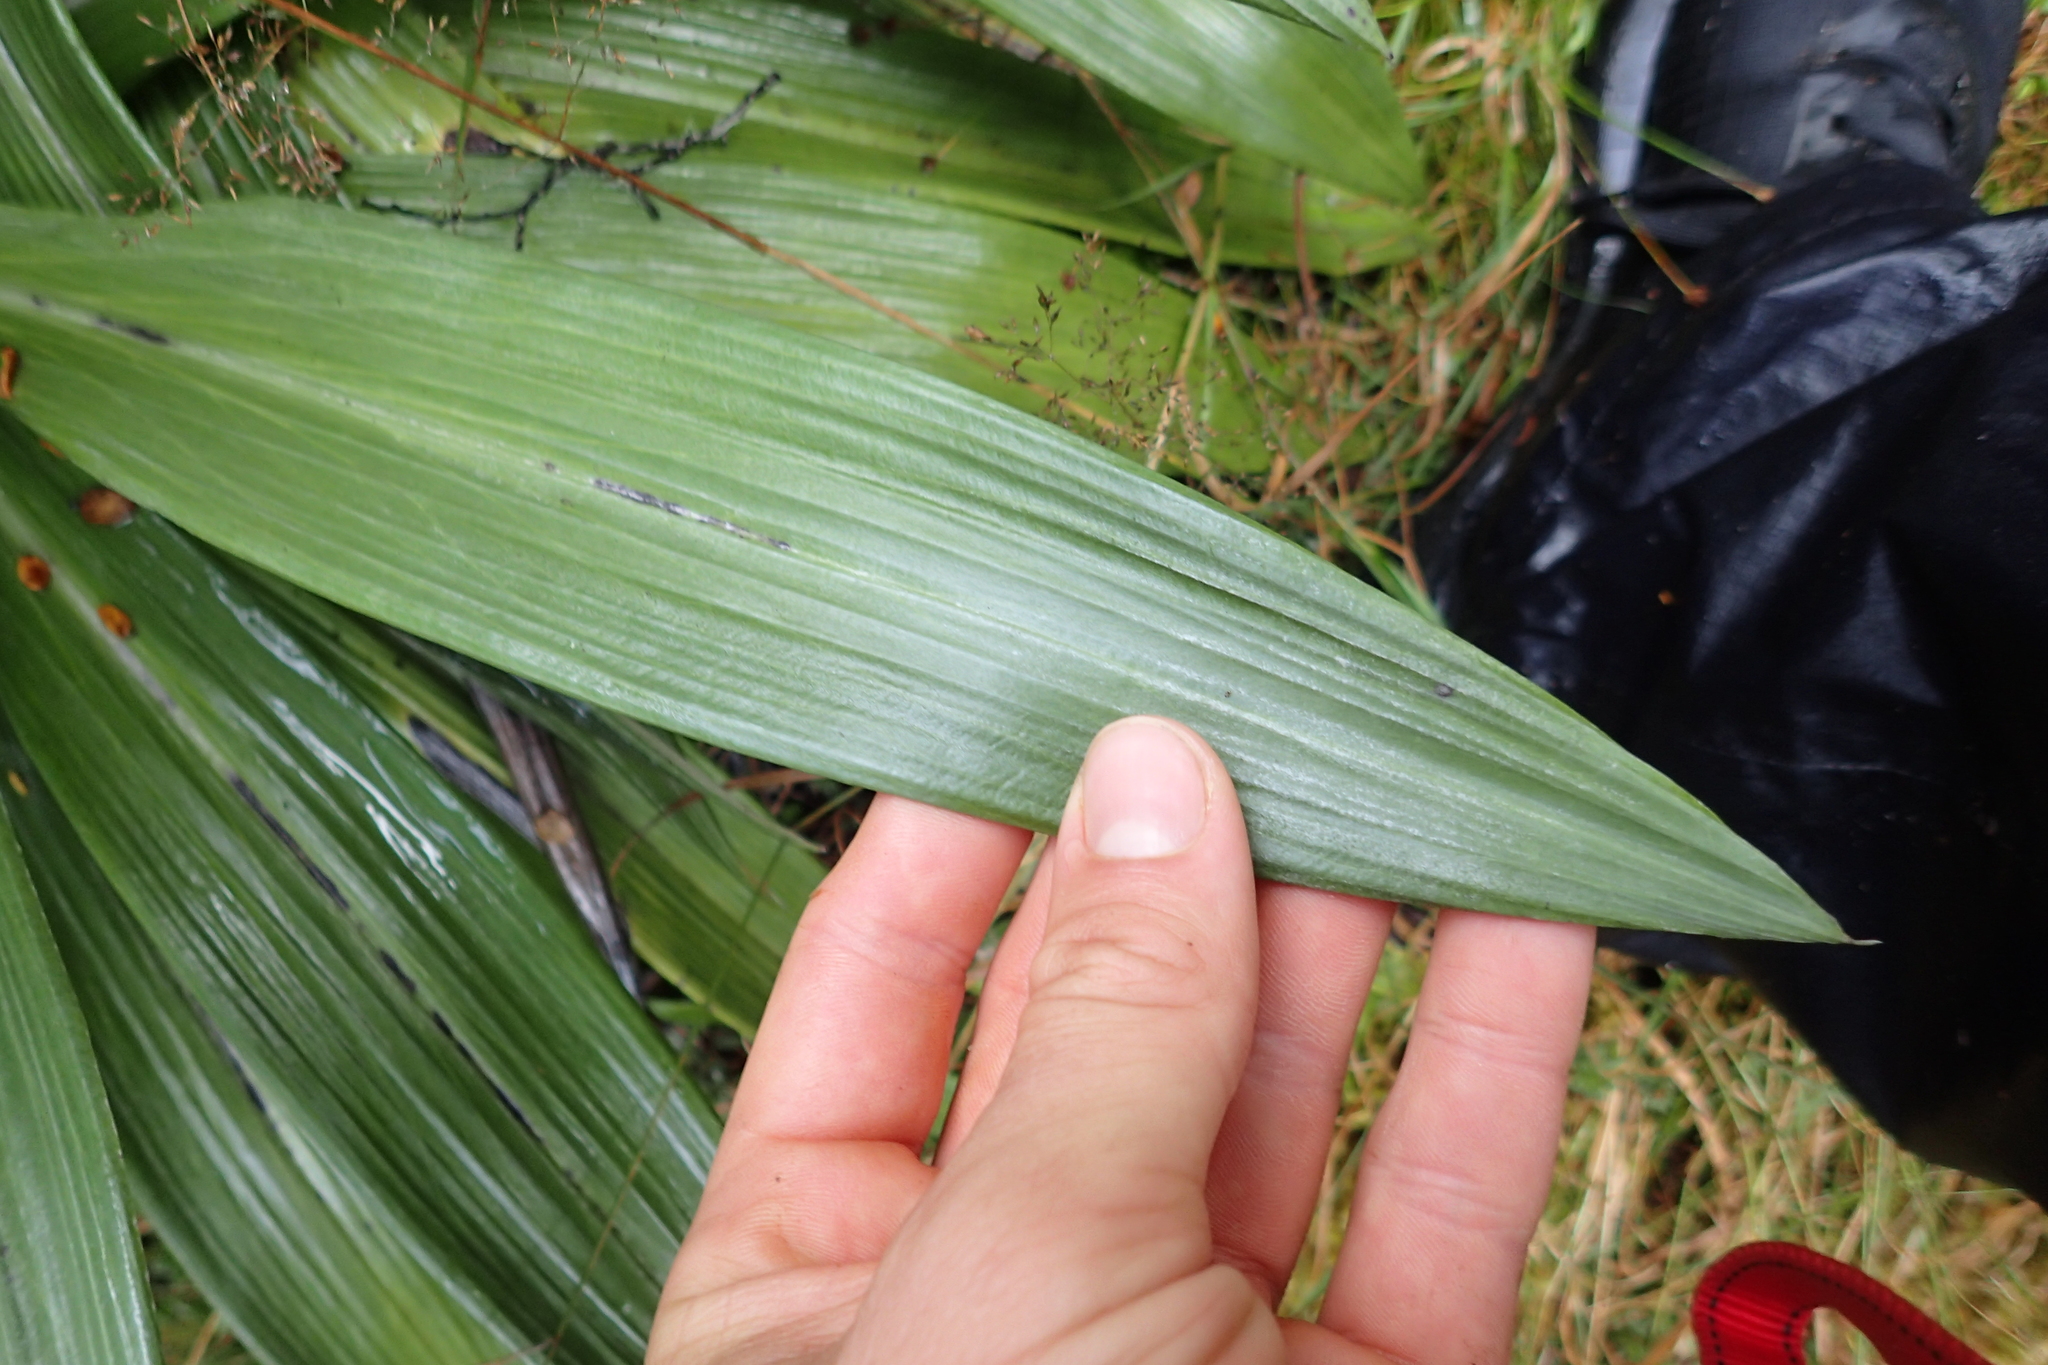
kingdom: Plantae
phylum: Tracheophyta
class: Magnoliopsida
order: Asterales
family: Asteraceae
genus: Celmisia
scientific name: Celmisia semicordata
